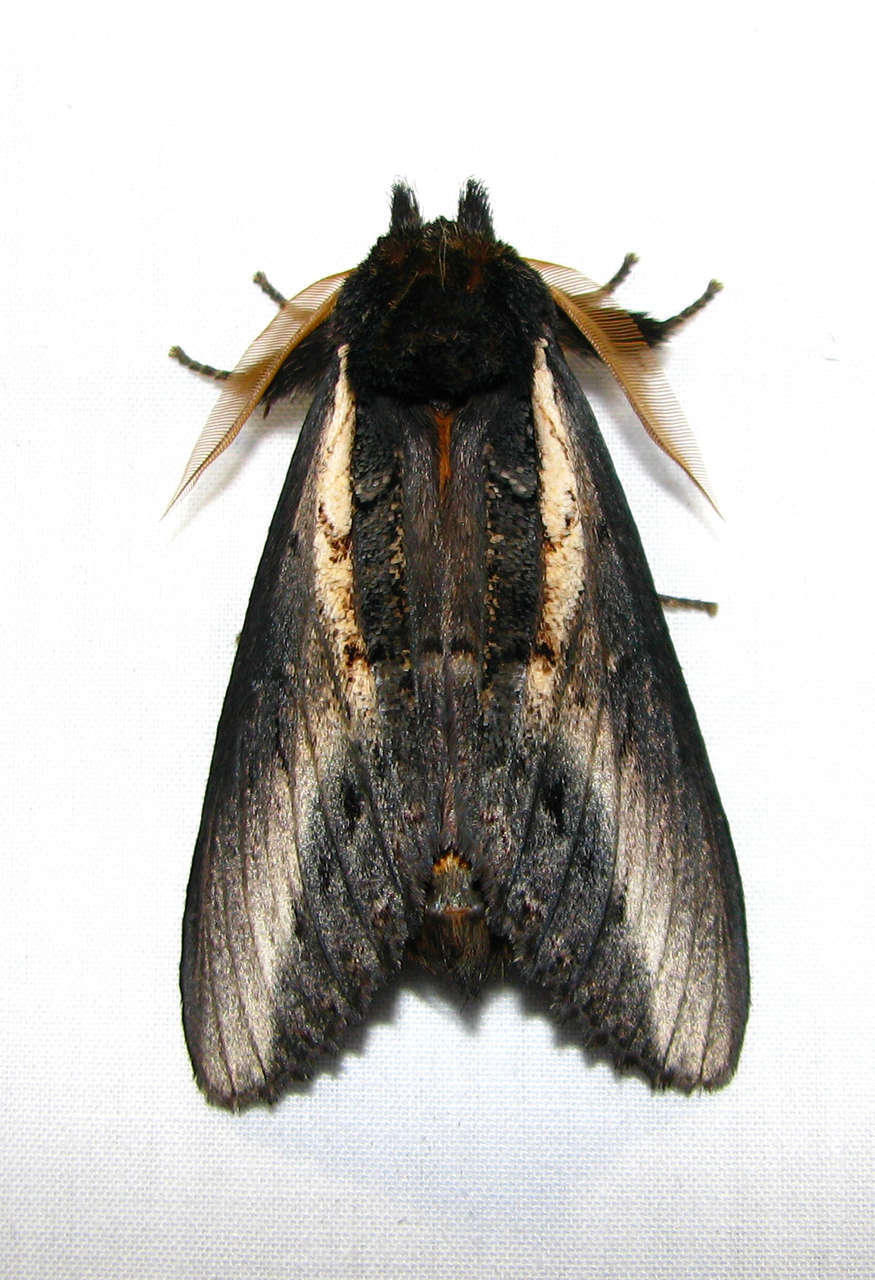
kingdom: Animalia
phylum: Arthropoda
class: Insecta
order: Lepidoptera
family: Notodontidae
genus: Hylaeora
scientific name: Hylaeora caustopis
